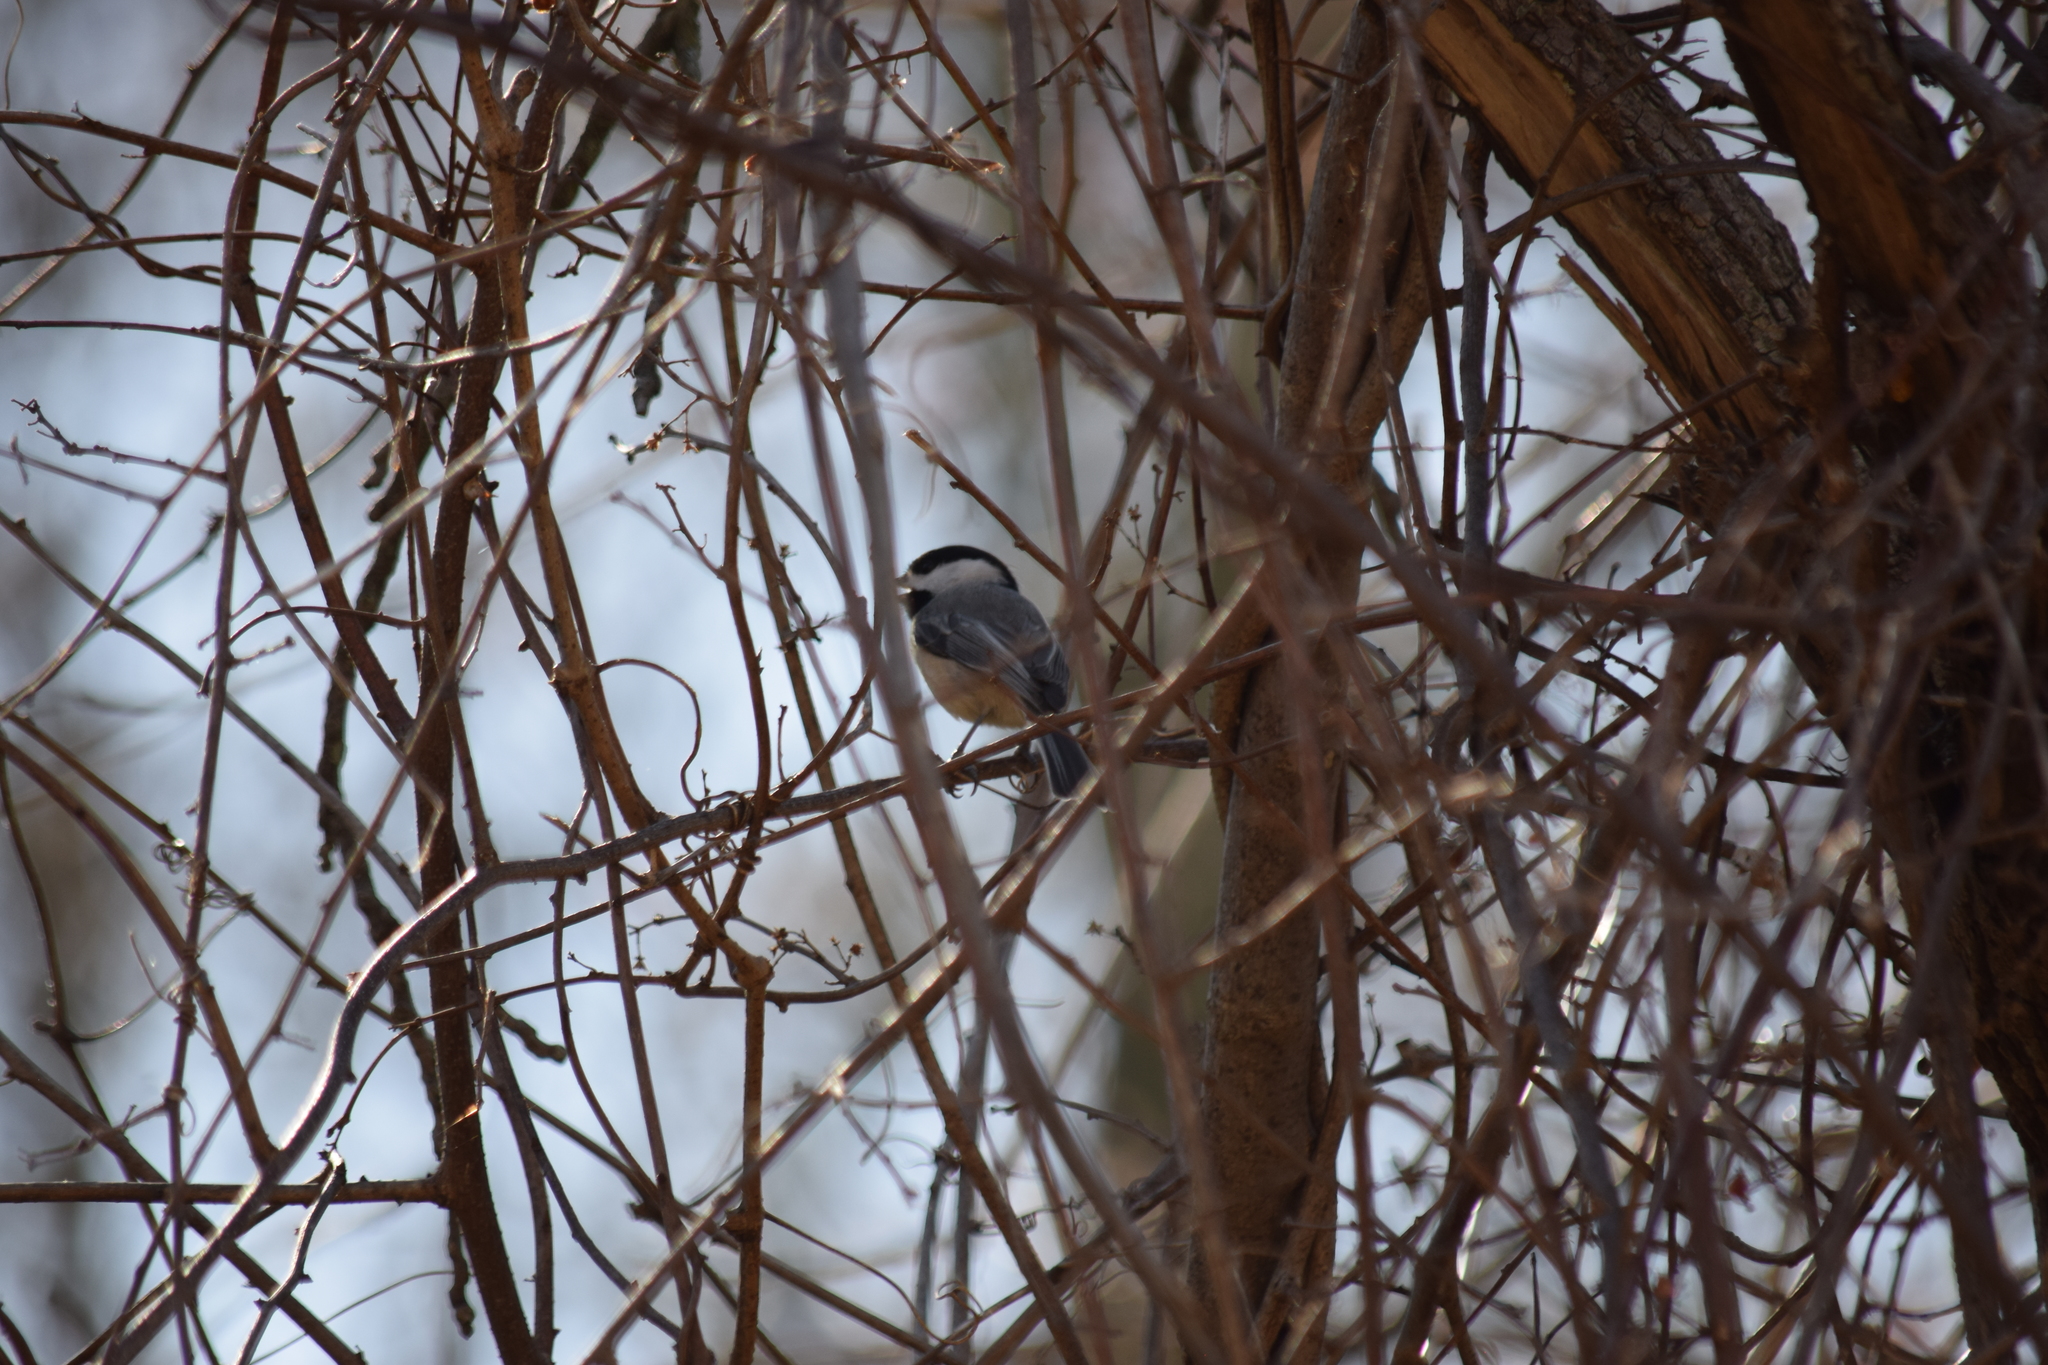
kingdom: Animalia
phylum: Chordata
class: Aves
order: Passeriformes
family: Paridae
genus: Poecile
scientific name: Poecile carolinensis
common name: Carolina chickadee
